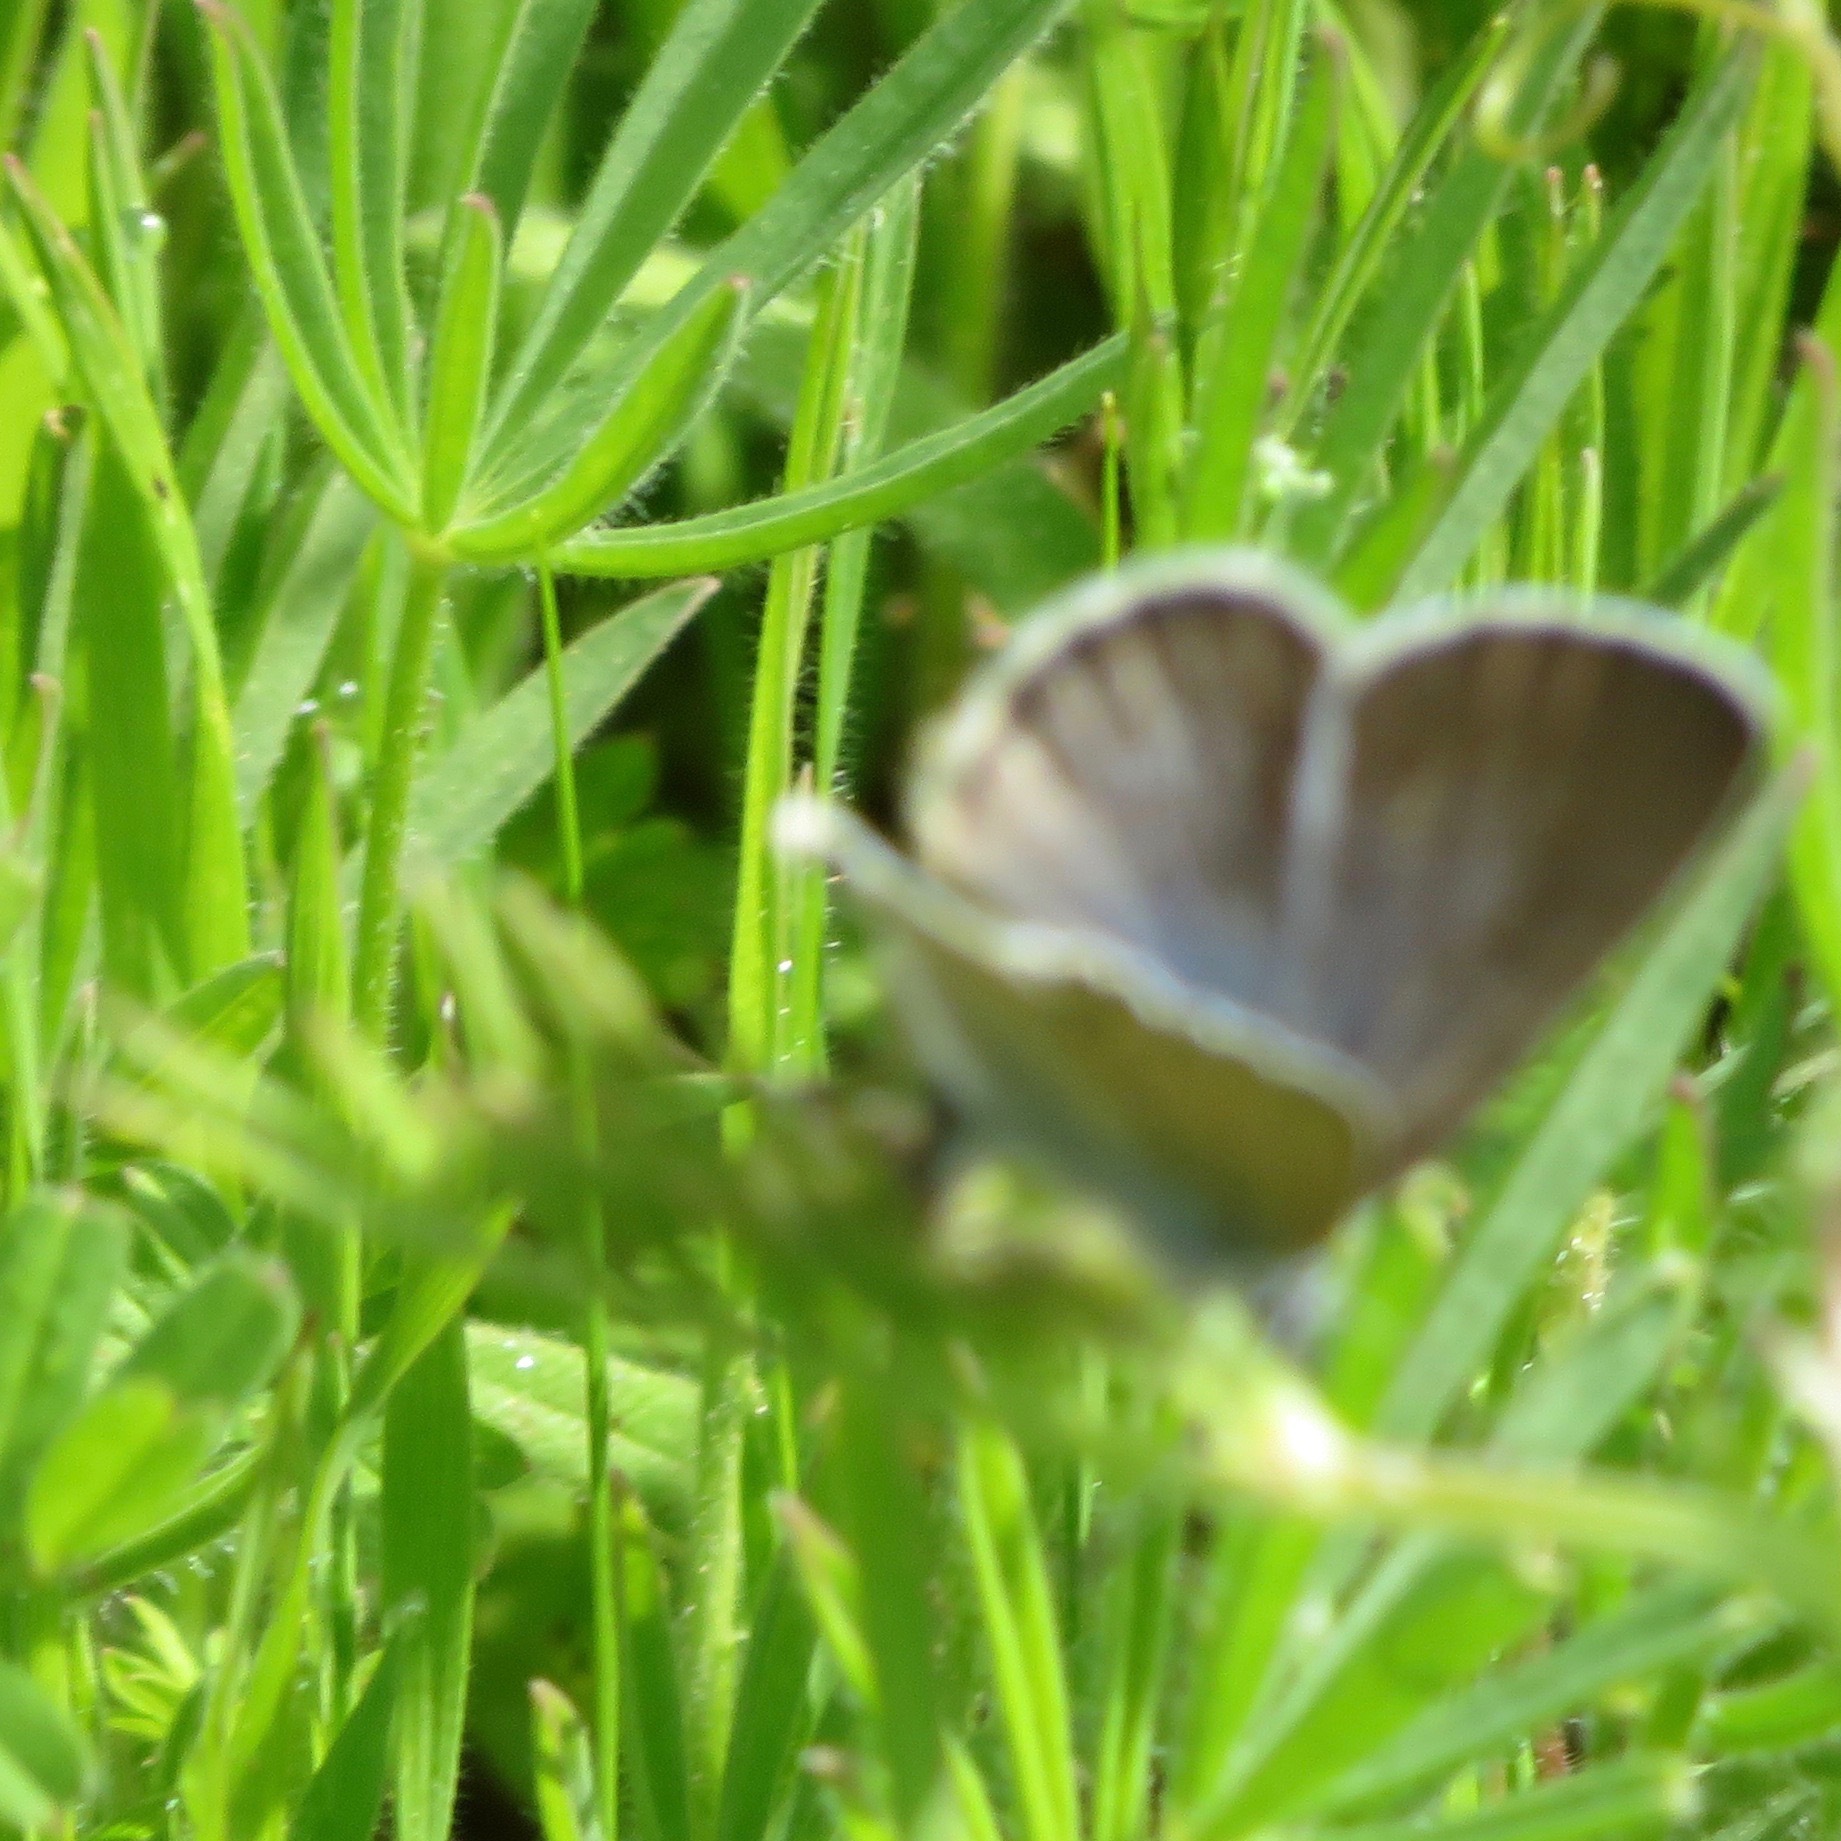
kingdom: Animalia
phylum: Arthropoda
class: Insecta
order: Lepidoptera
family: Lycaenidae
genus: Glaucopsyche
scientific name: Glaucopsyche lygdamus
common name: Silvery blue
